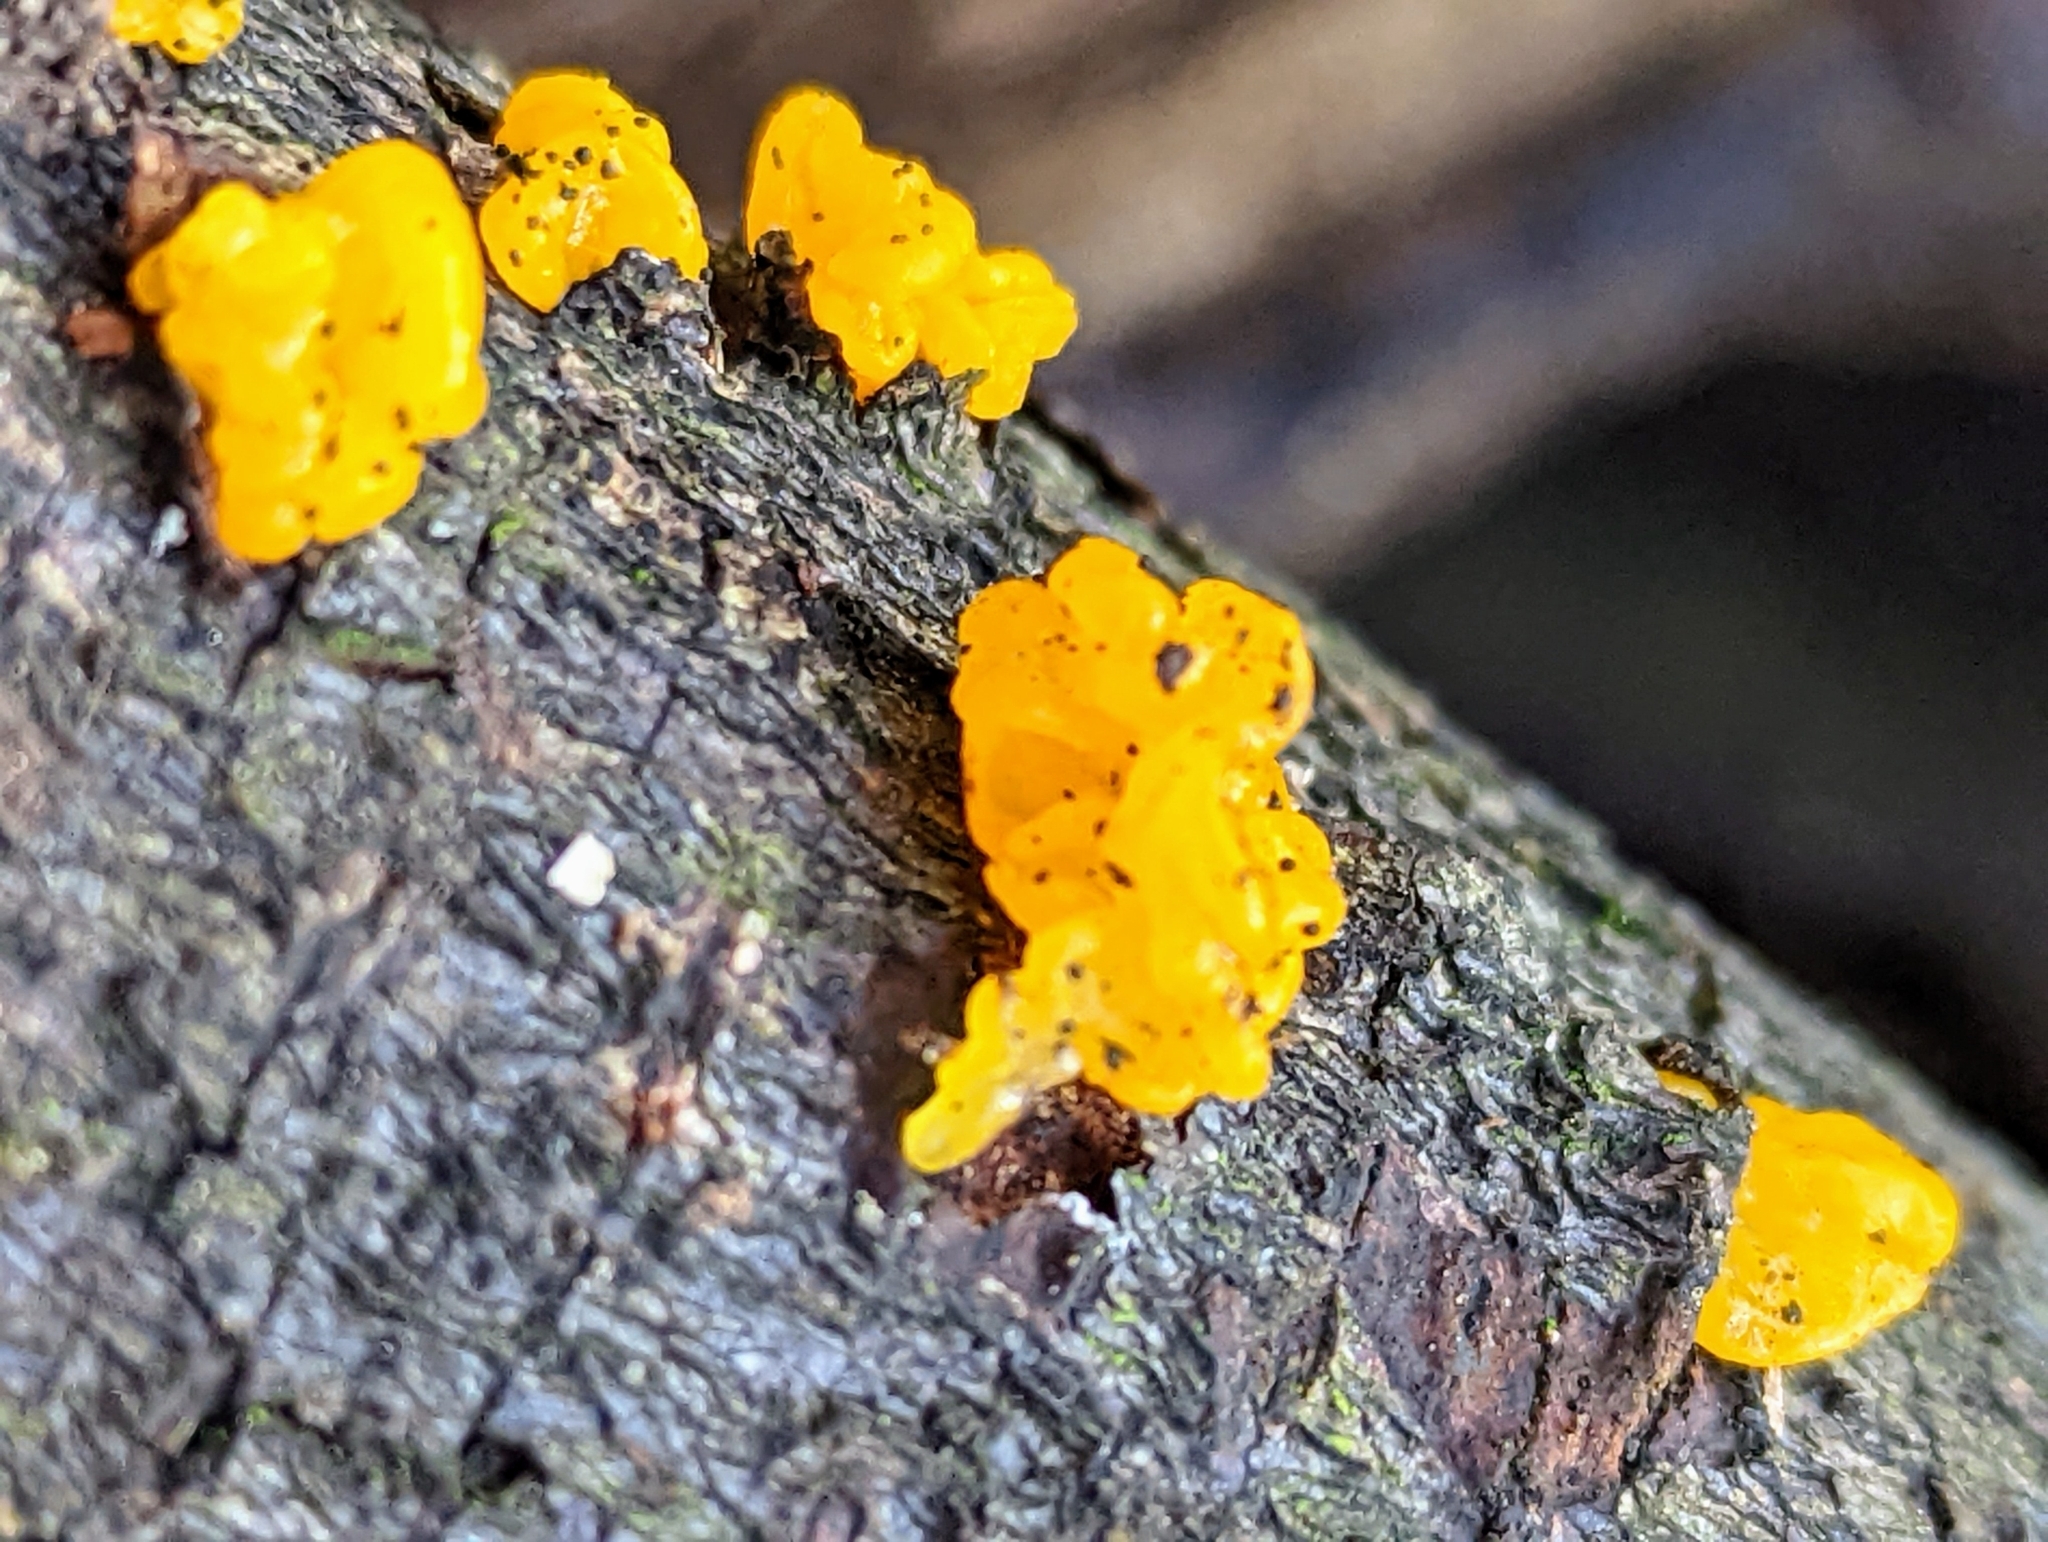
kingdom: Fungi
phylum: Basidiomycota
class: Tremellomycetes
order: Tremellales
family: Tremellaceae
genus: Tremella
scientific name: Tremella mesenterica
